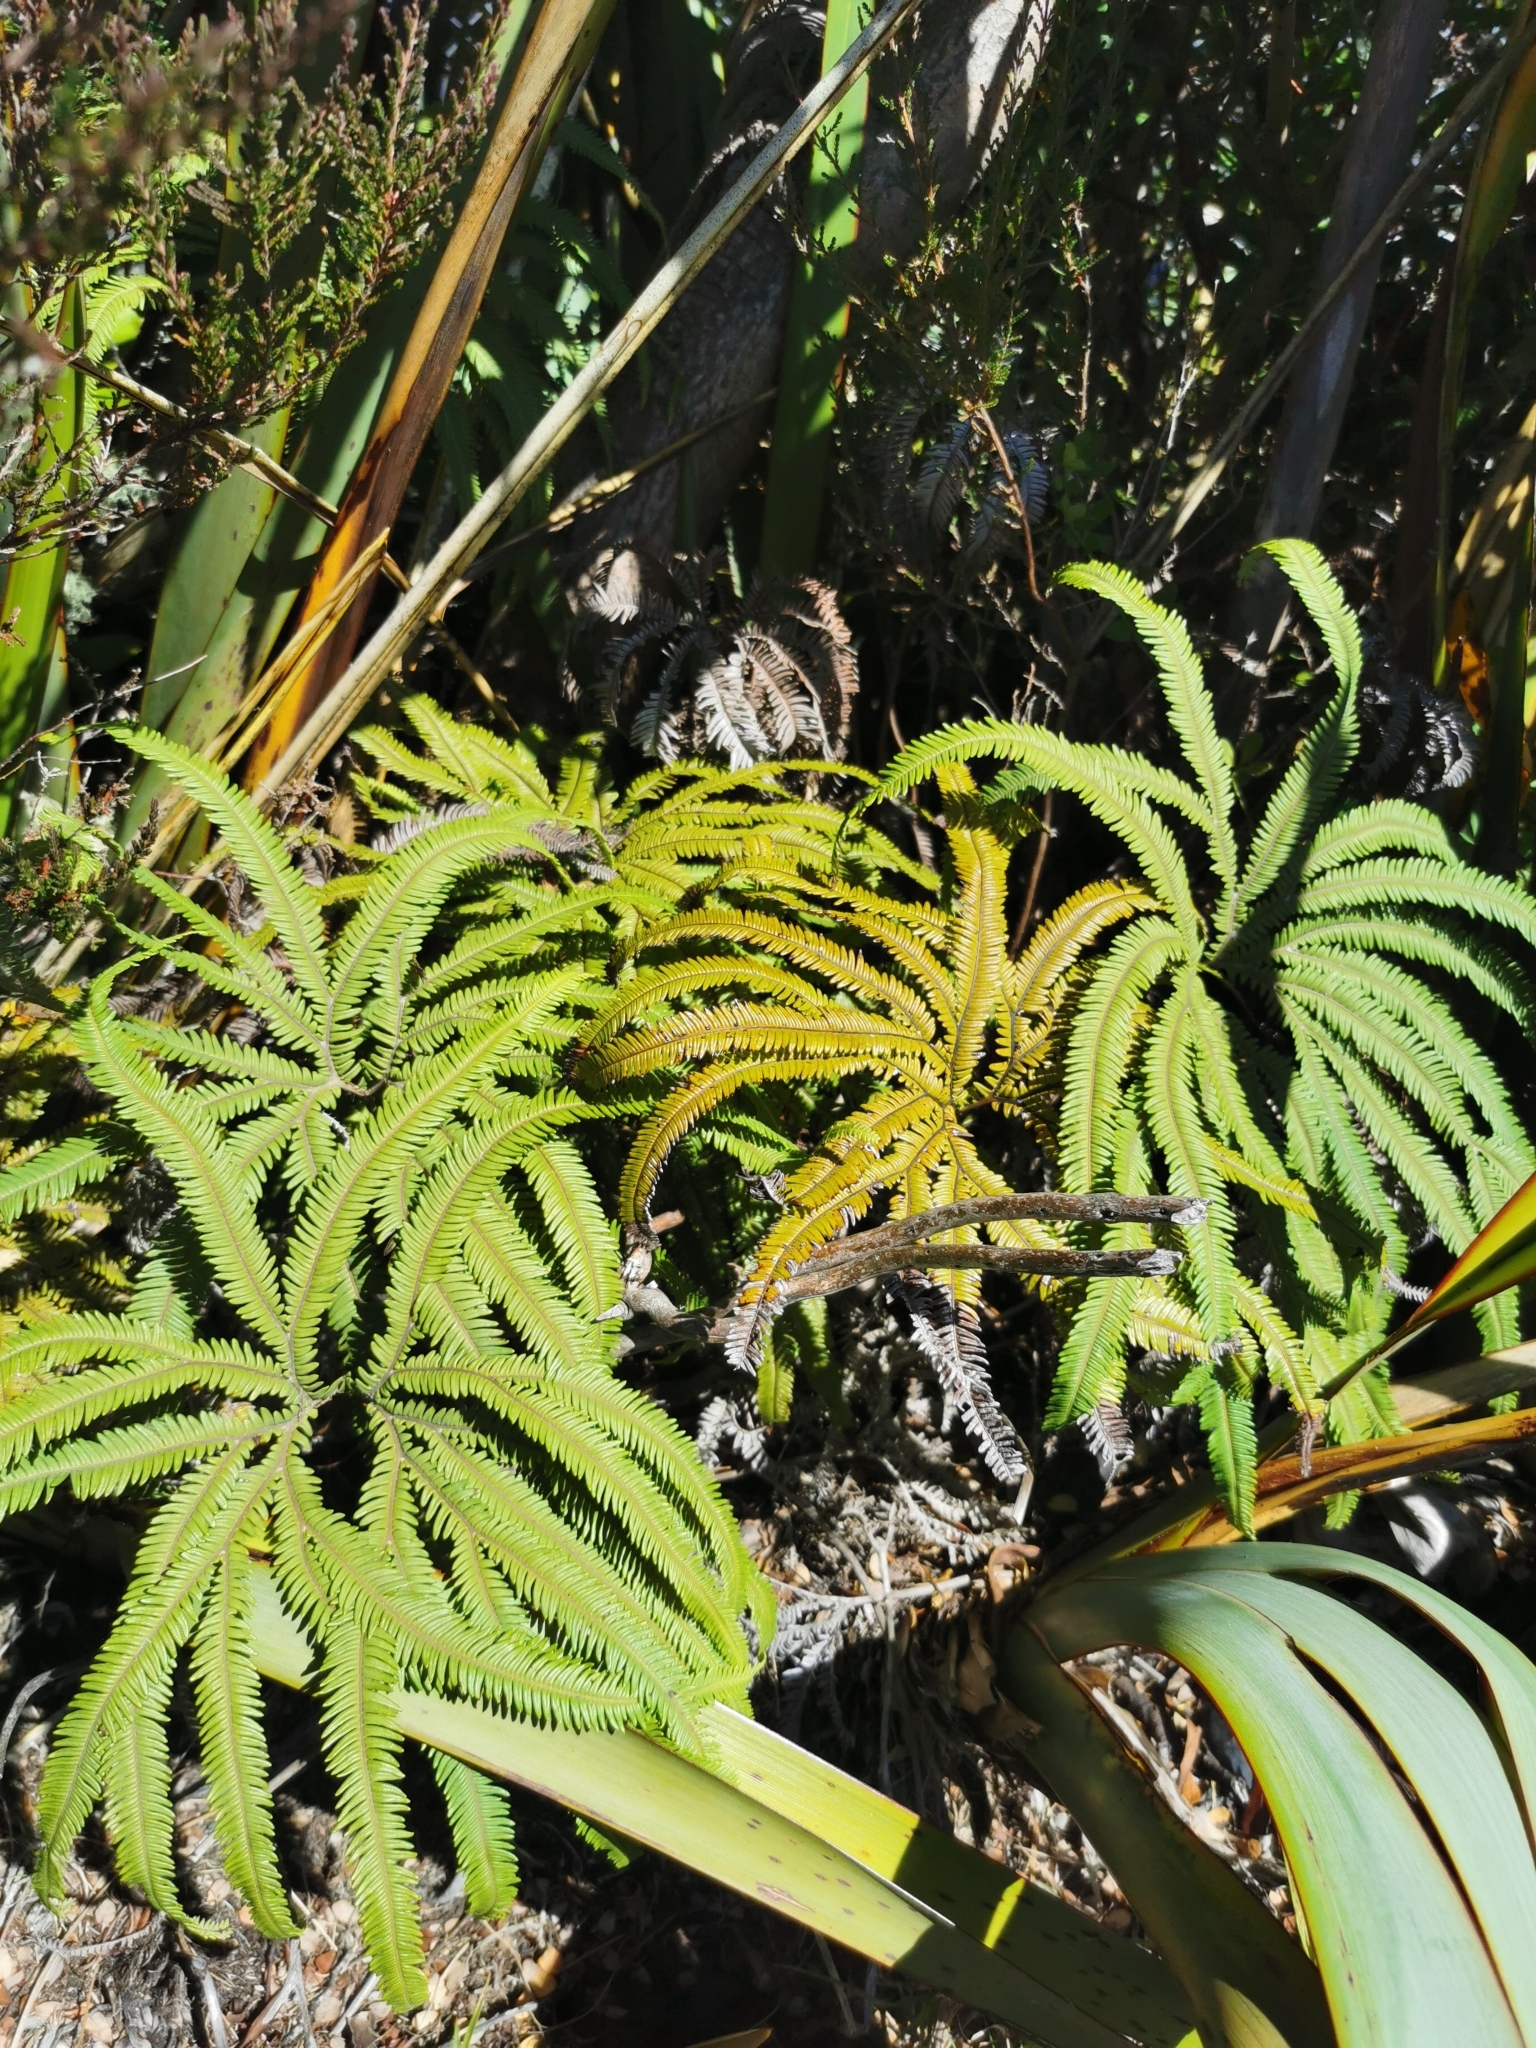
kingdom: Plantae
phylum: Tracheophyta
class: Polypodiopsida
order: Gleicheniales
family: Gleicheniaceae
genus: Sticherus
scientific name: Sticherus cunninghamii
